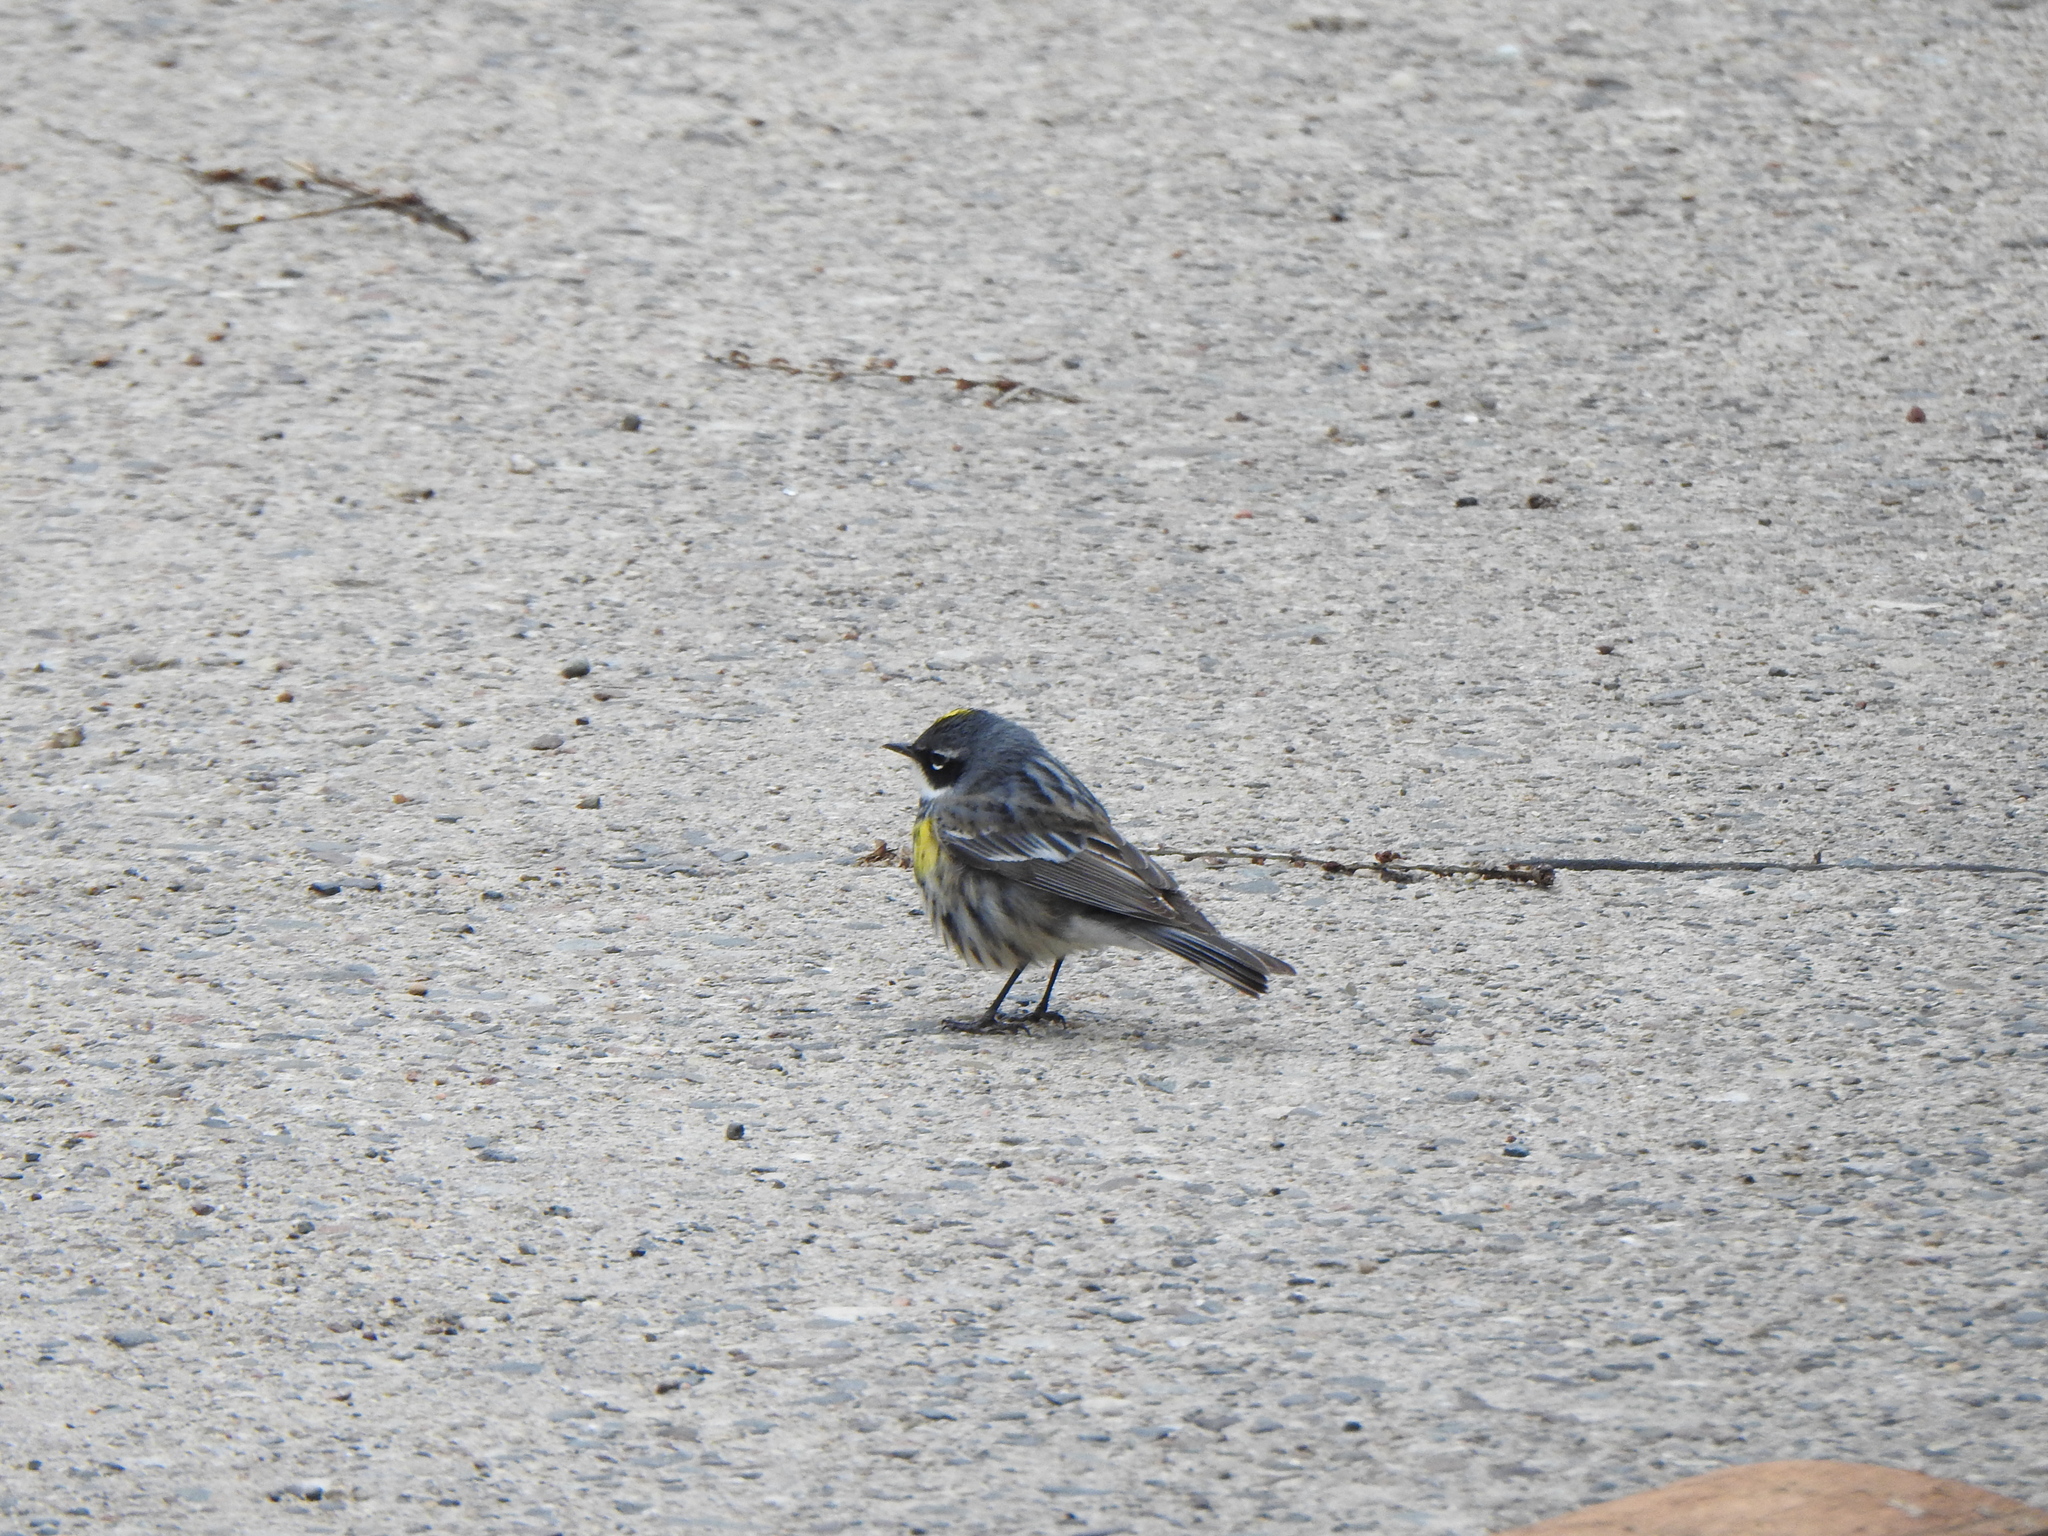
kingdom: Animalia
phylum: Chordata
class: Aves
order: Passeriformes
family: Parulidae
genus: Setophaga
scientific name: Setophaga coronata
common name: Myrtle warbler
